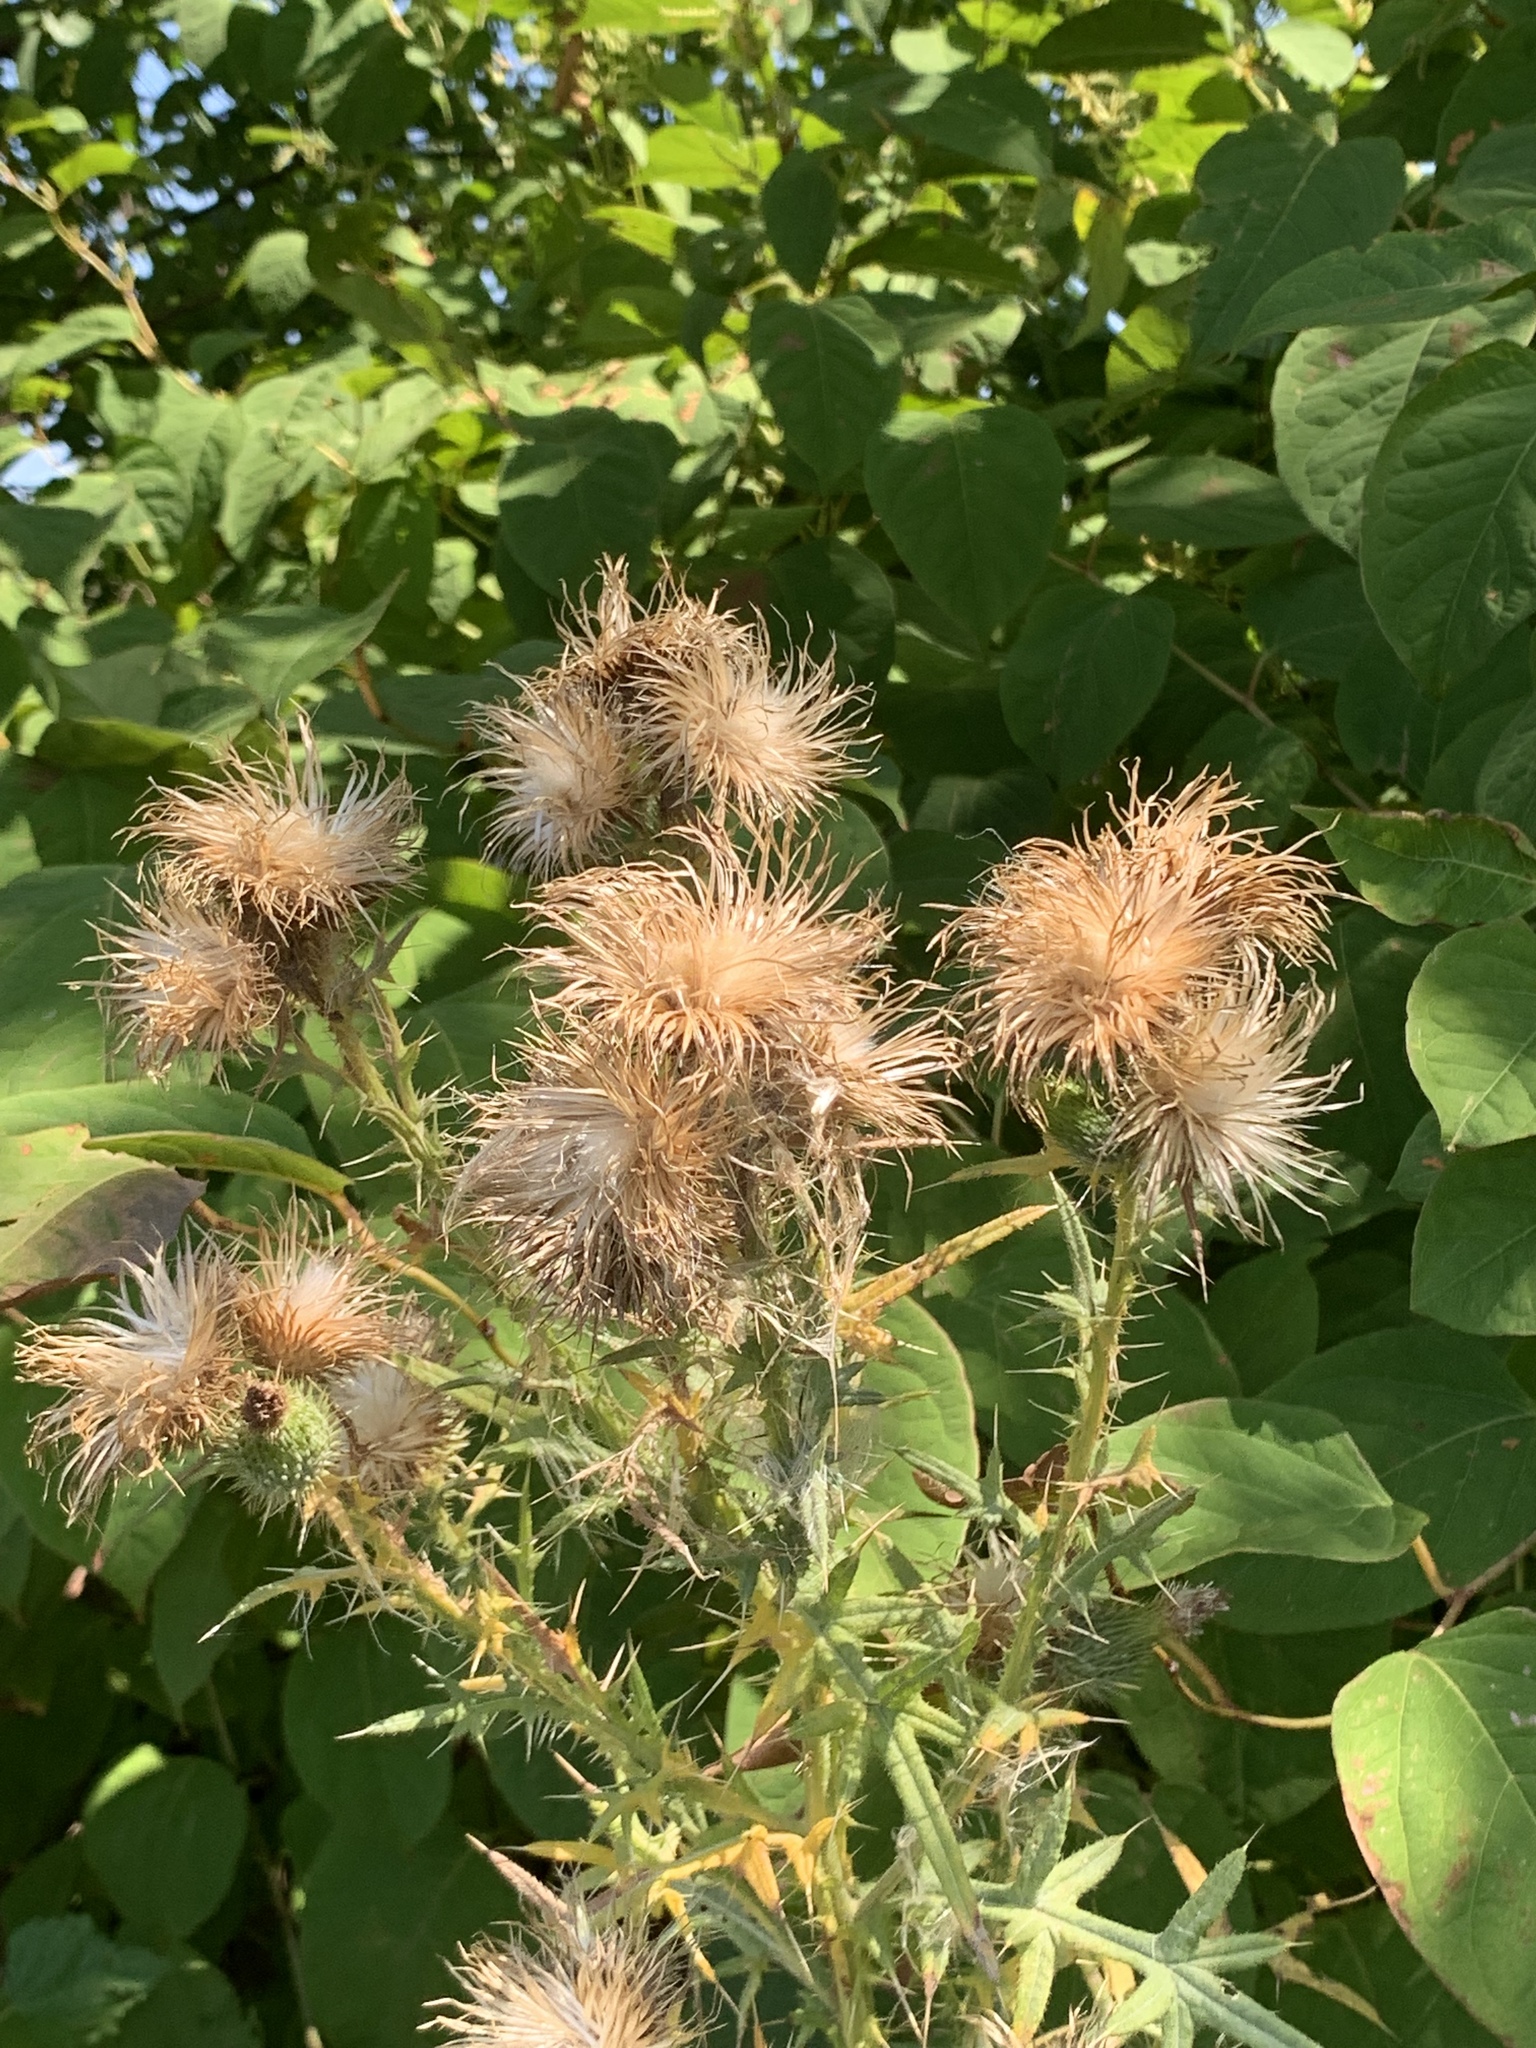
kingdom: Plantae
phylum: Tracheophyta
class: Magnoliopsida
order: Asterales
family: Asteraceae
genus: Cirsium
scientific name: Cirsium vulgare
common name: Bull thistle
